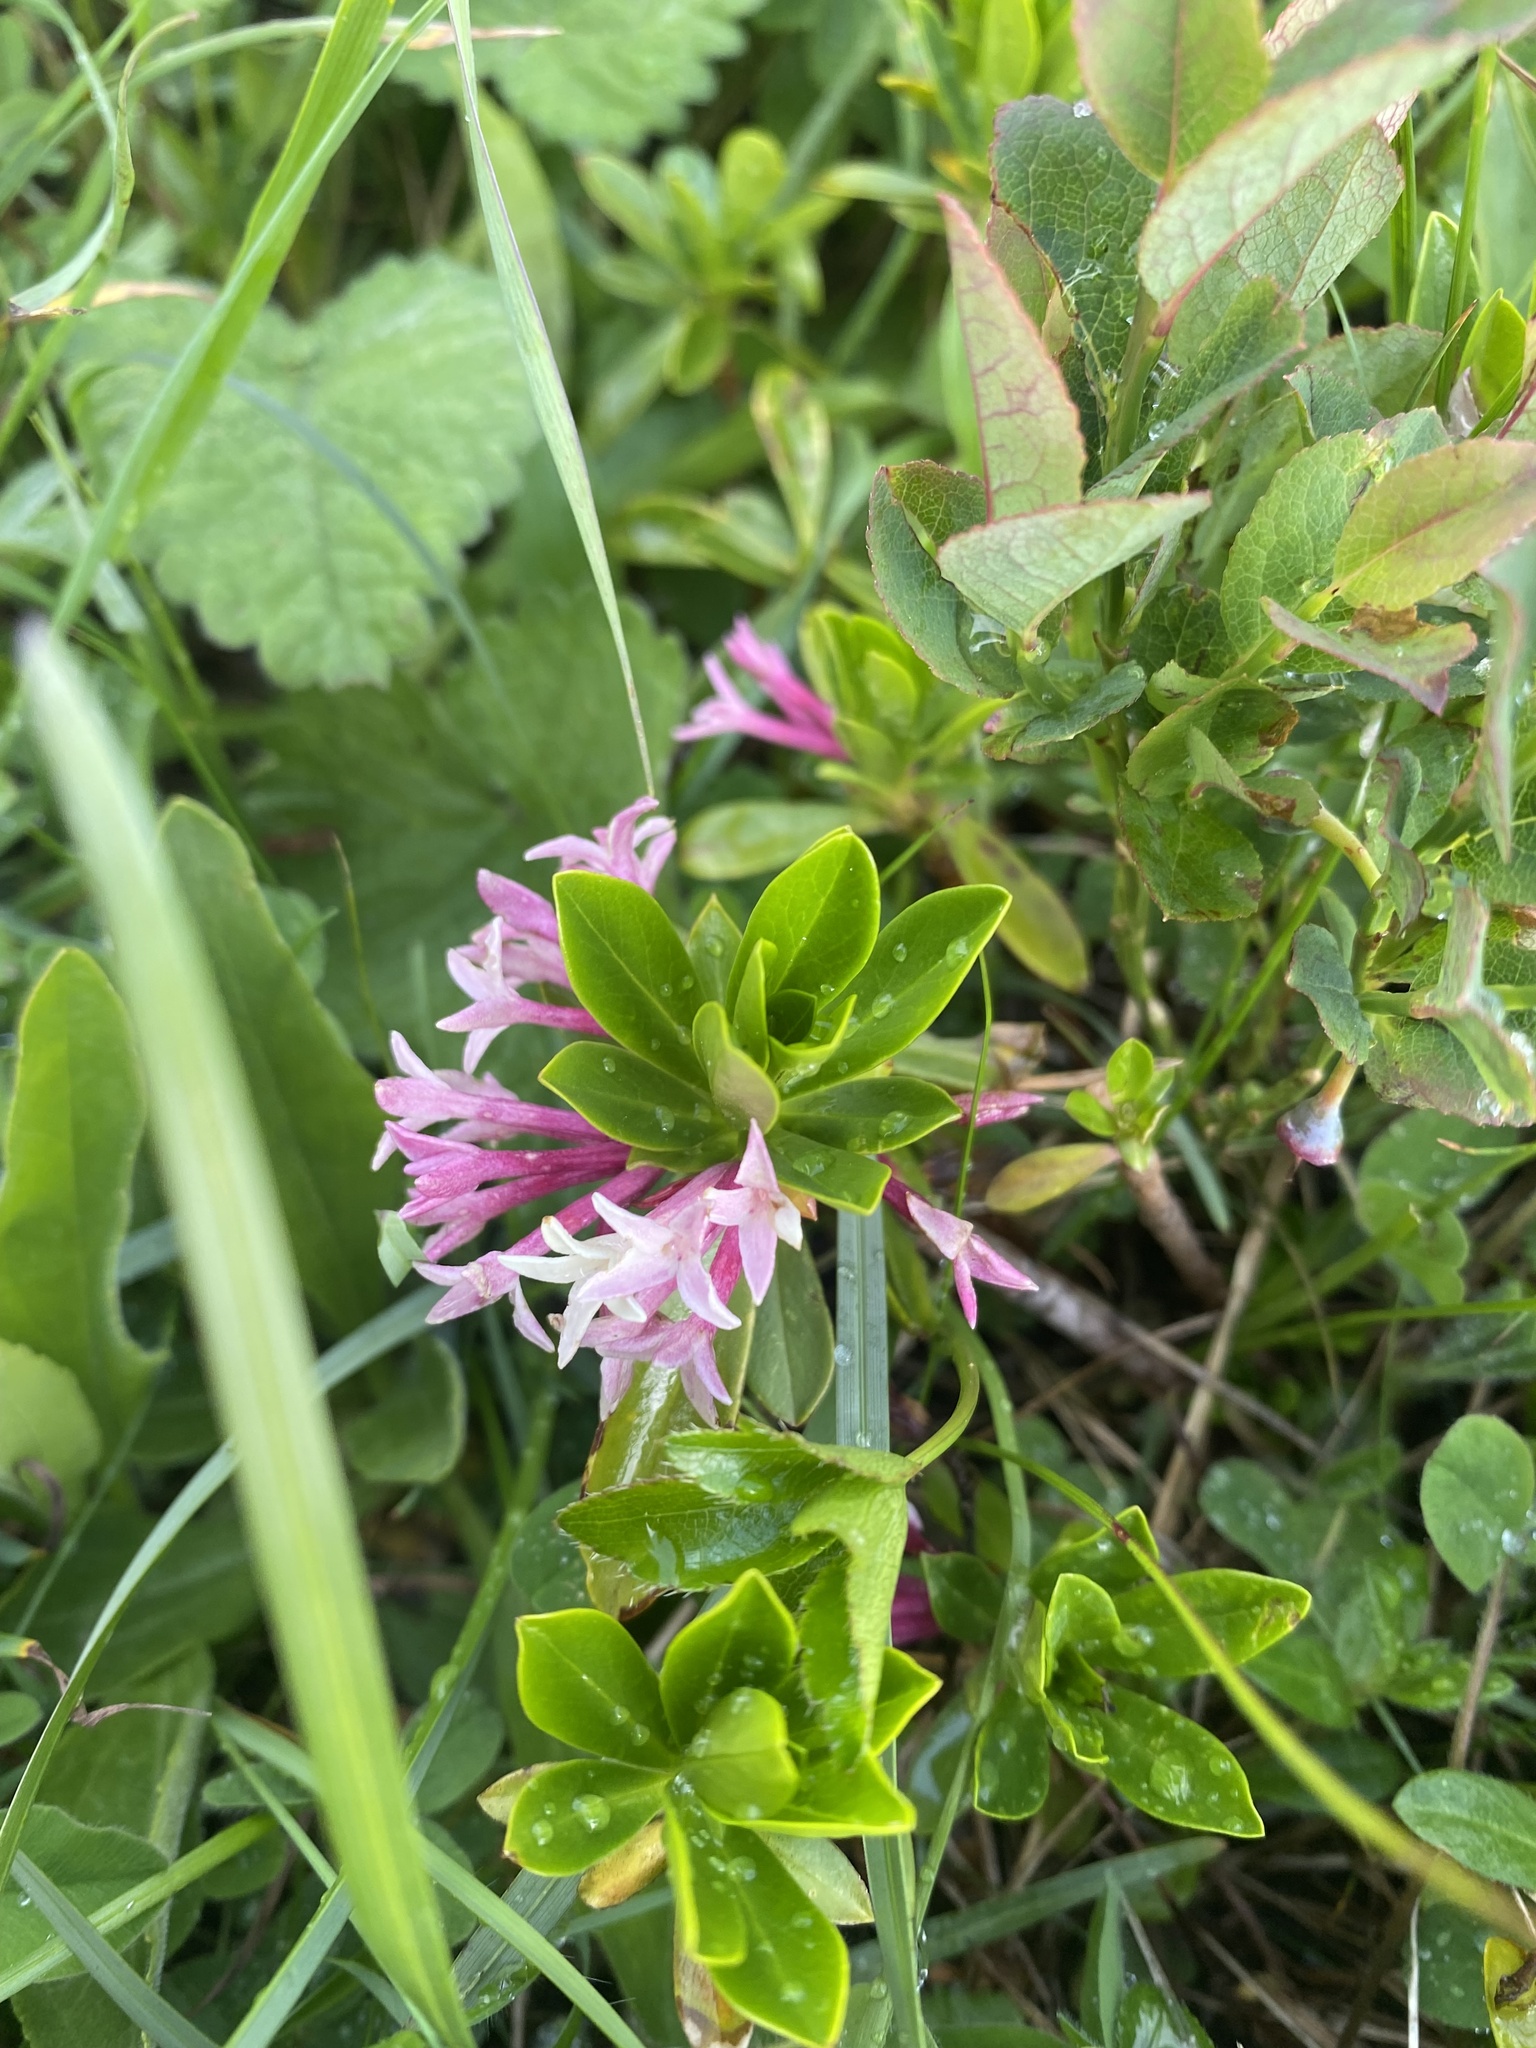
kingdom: Plantae
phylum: Tracheophyta
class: Magnoliopsida
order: Malvales
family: Thymelaeaceae
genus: Daphne
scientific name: Daphne glomerata
